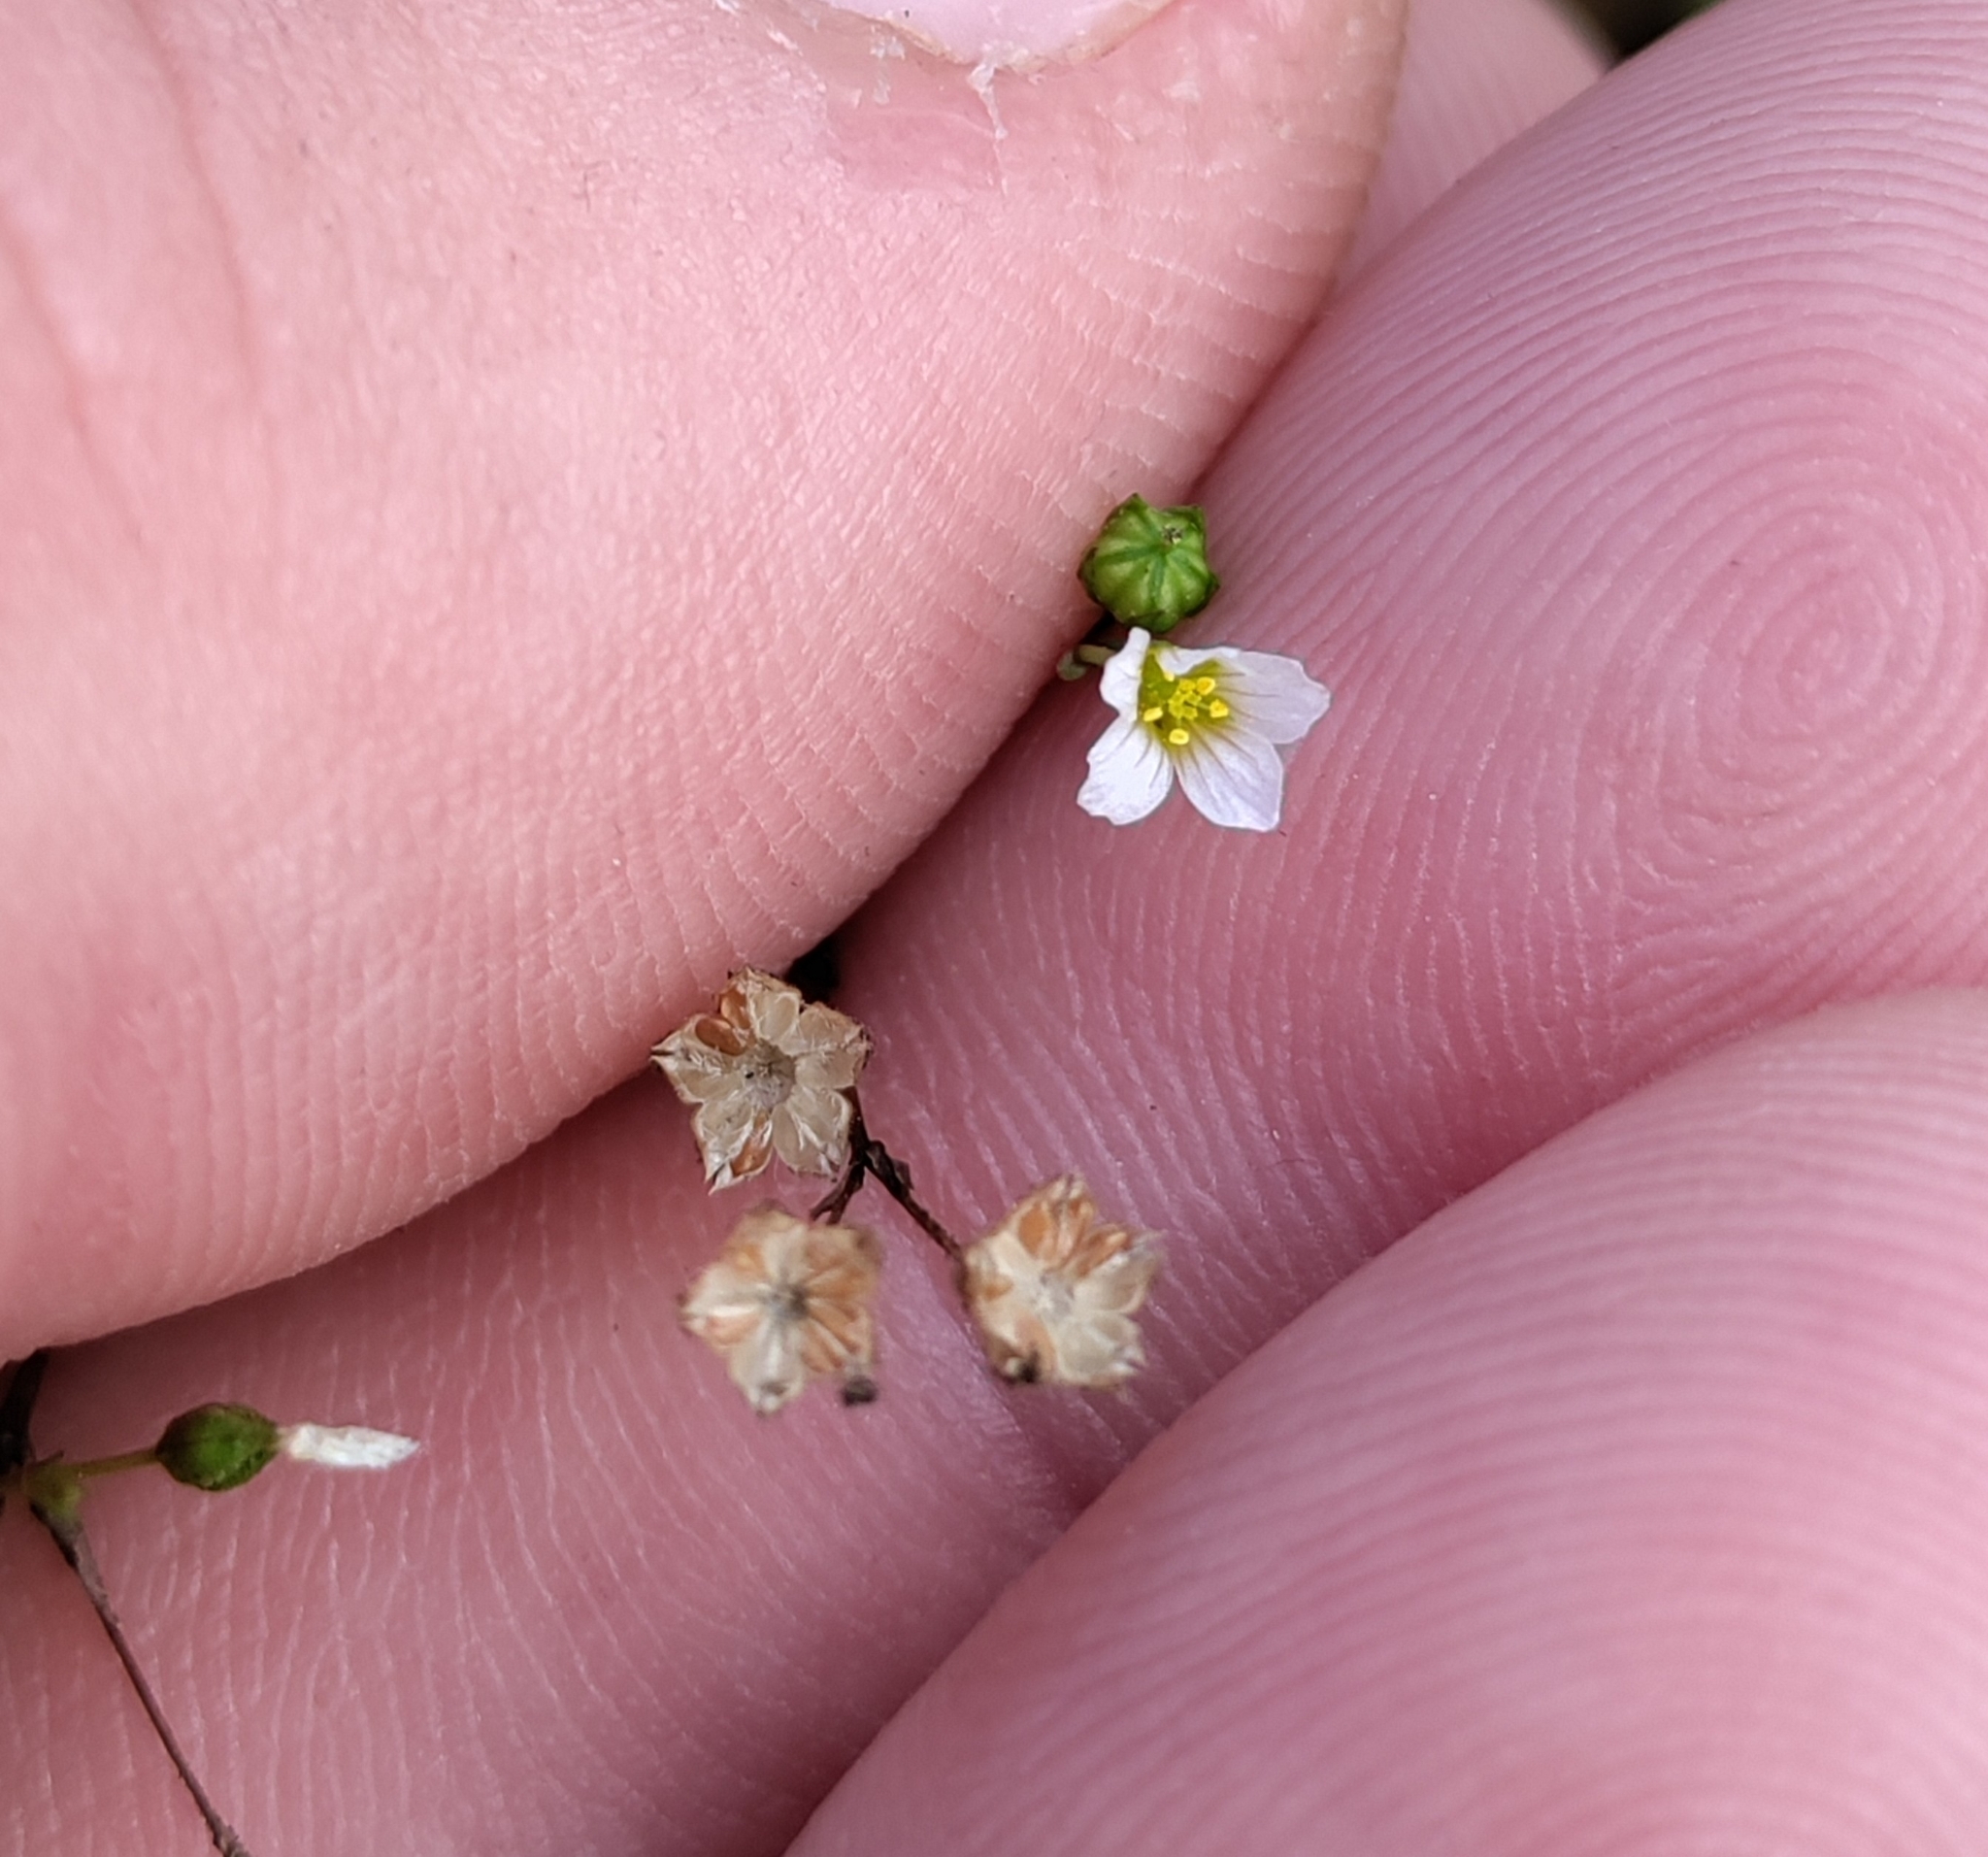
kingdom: Plantae
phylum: Tracheophyta
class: Magnoliopsida
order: Malpighiales
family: Linaceae
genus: Linum
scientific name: Linum catharticum
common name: Fairy flax
